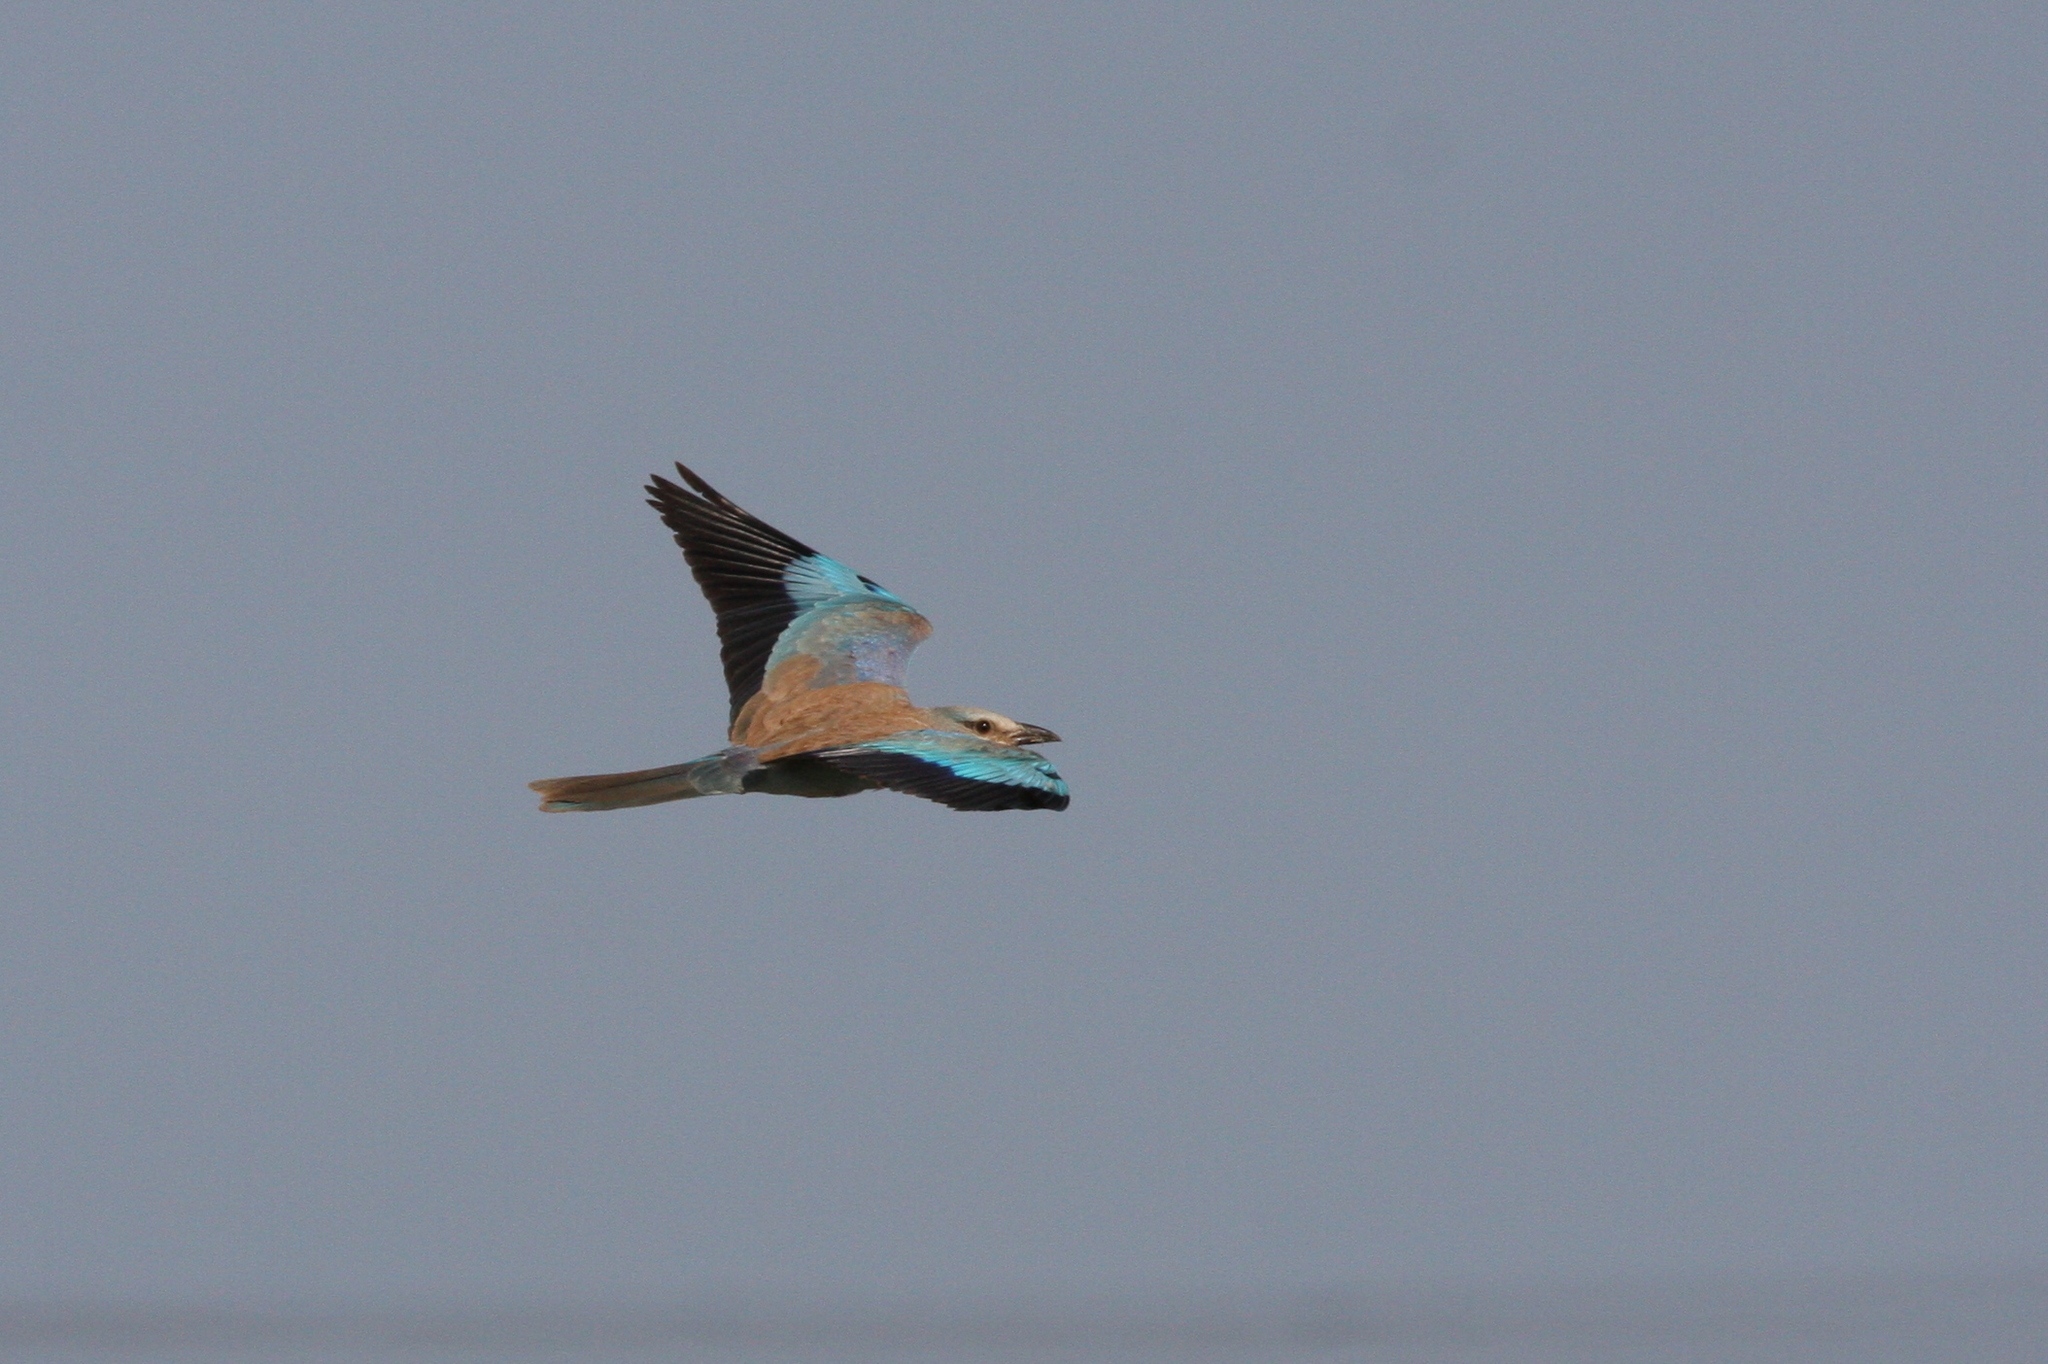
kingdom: Animalia
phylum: Chordata
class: Aves
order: Coraciiformes
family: Coraciidae
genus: Coracias
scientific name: Coracias garrulus
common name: European roller
